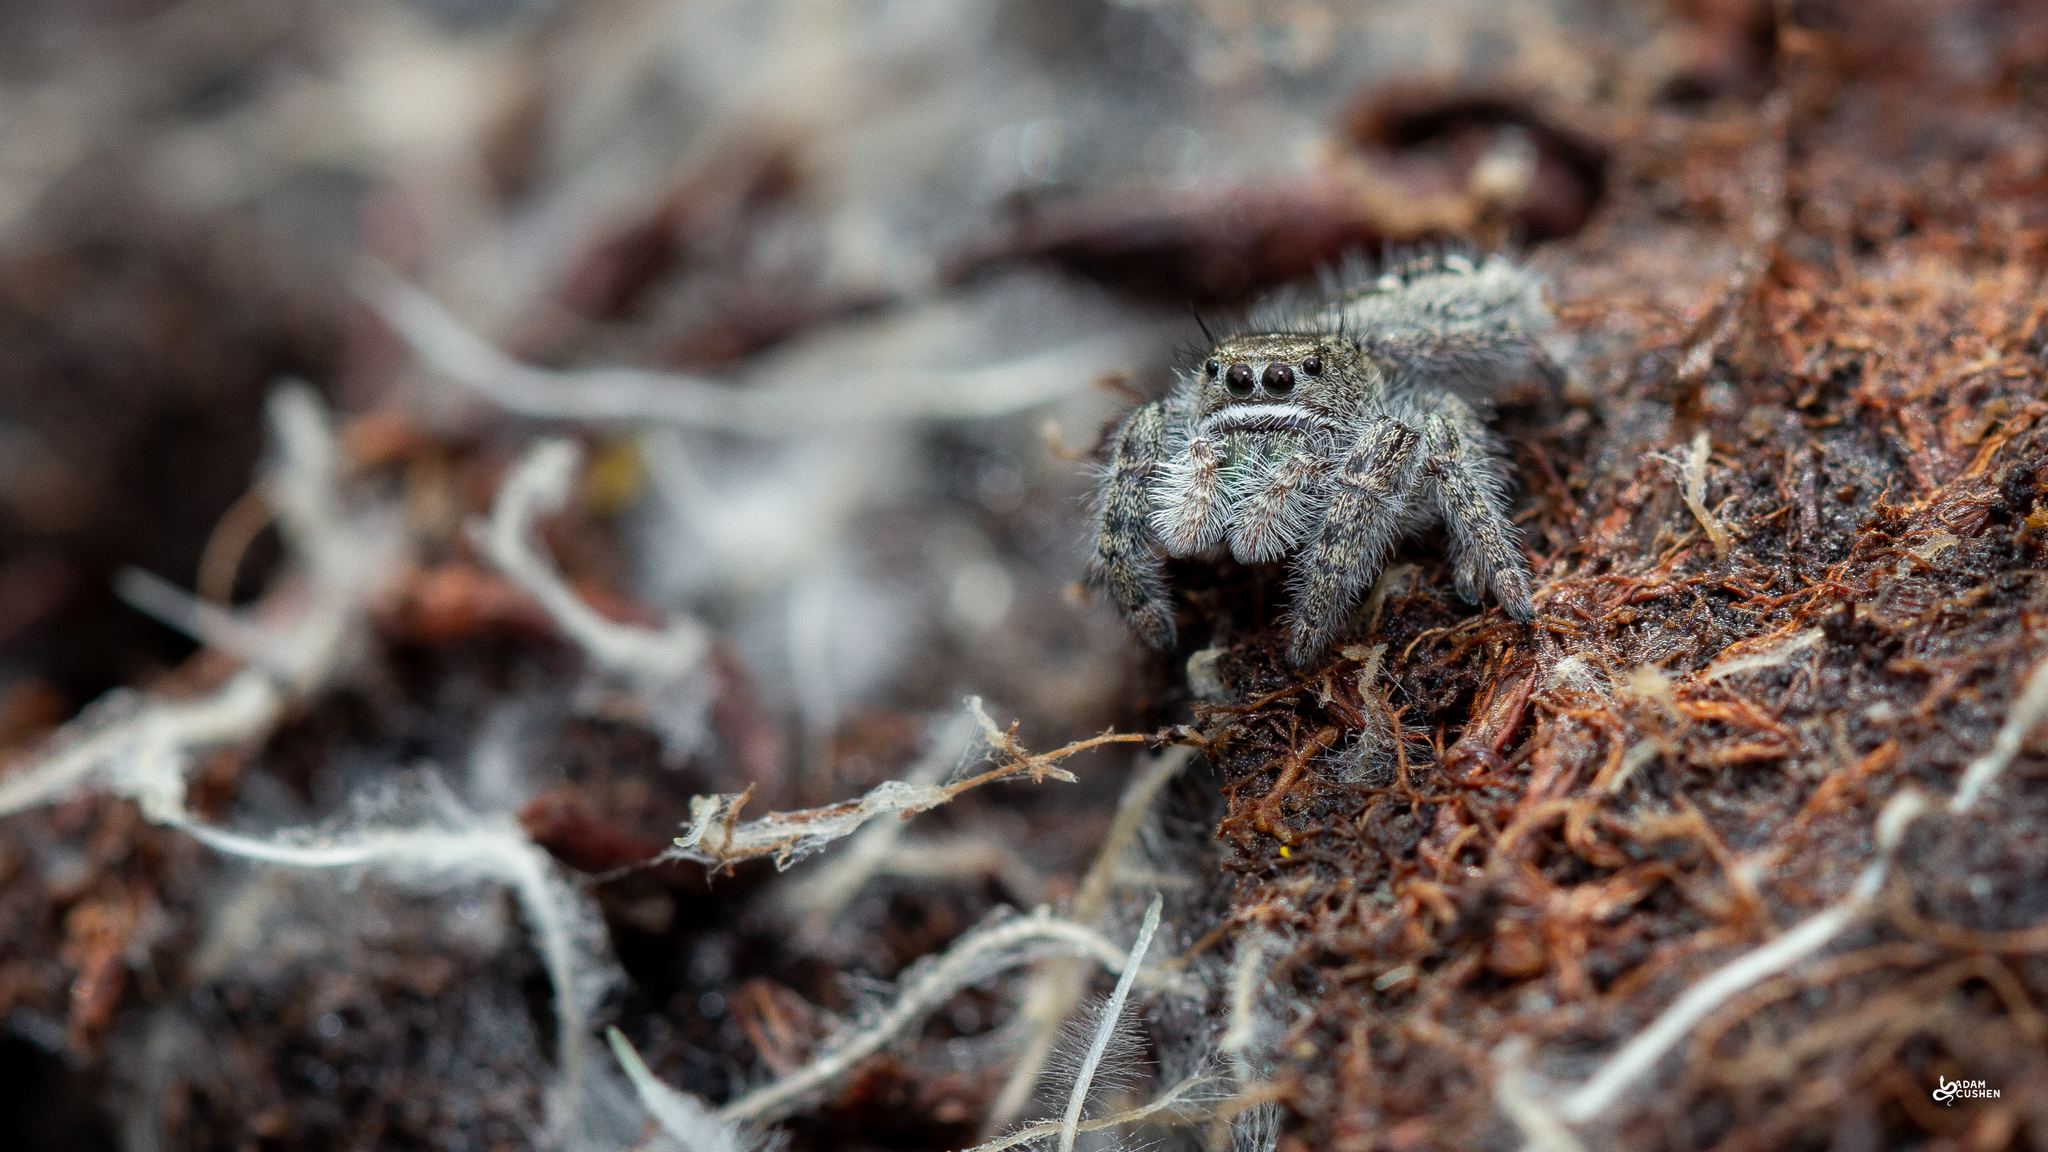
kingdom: Animalia
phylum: Arthropoda
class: Arachnida
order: Araneae
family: Salticidae
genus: Phidippus
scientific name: Phidippus purpuratus
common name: Marbled purple jumping spider
